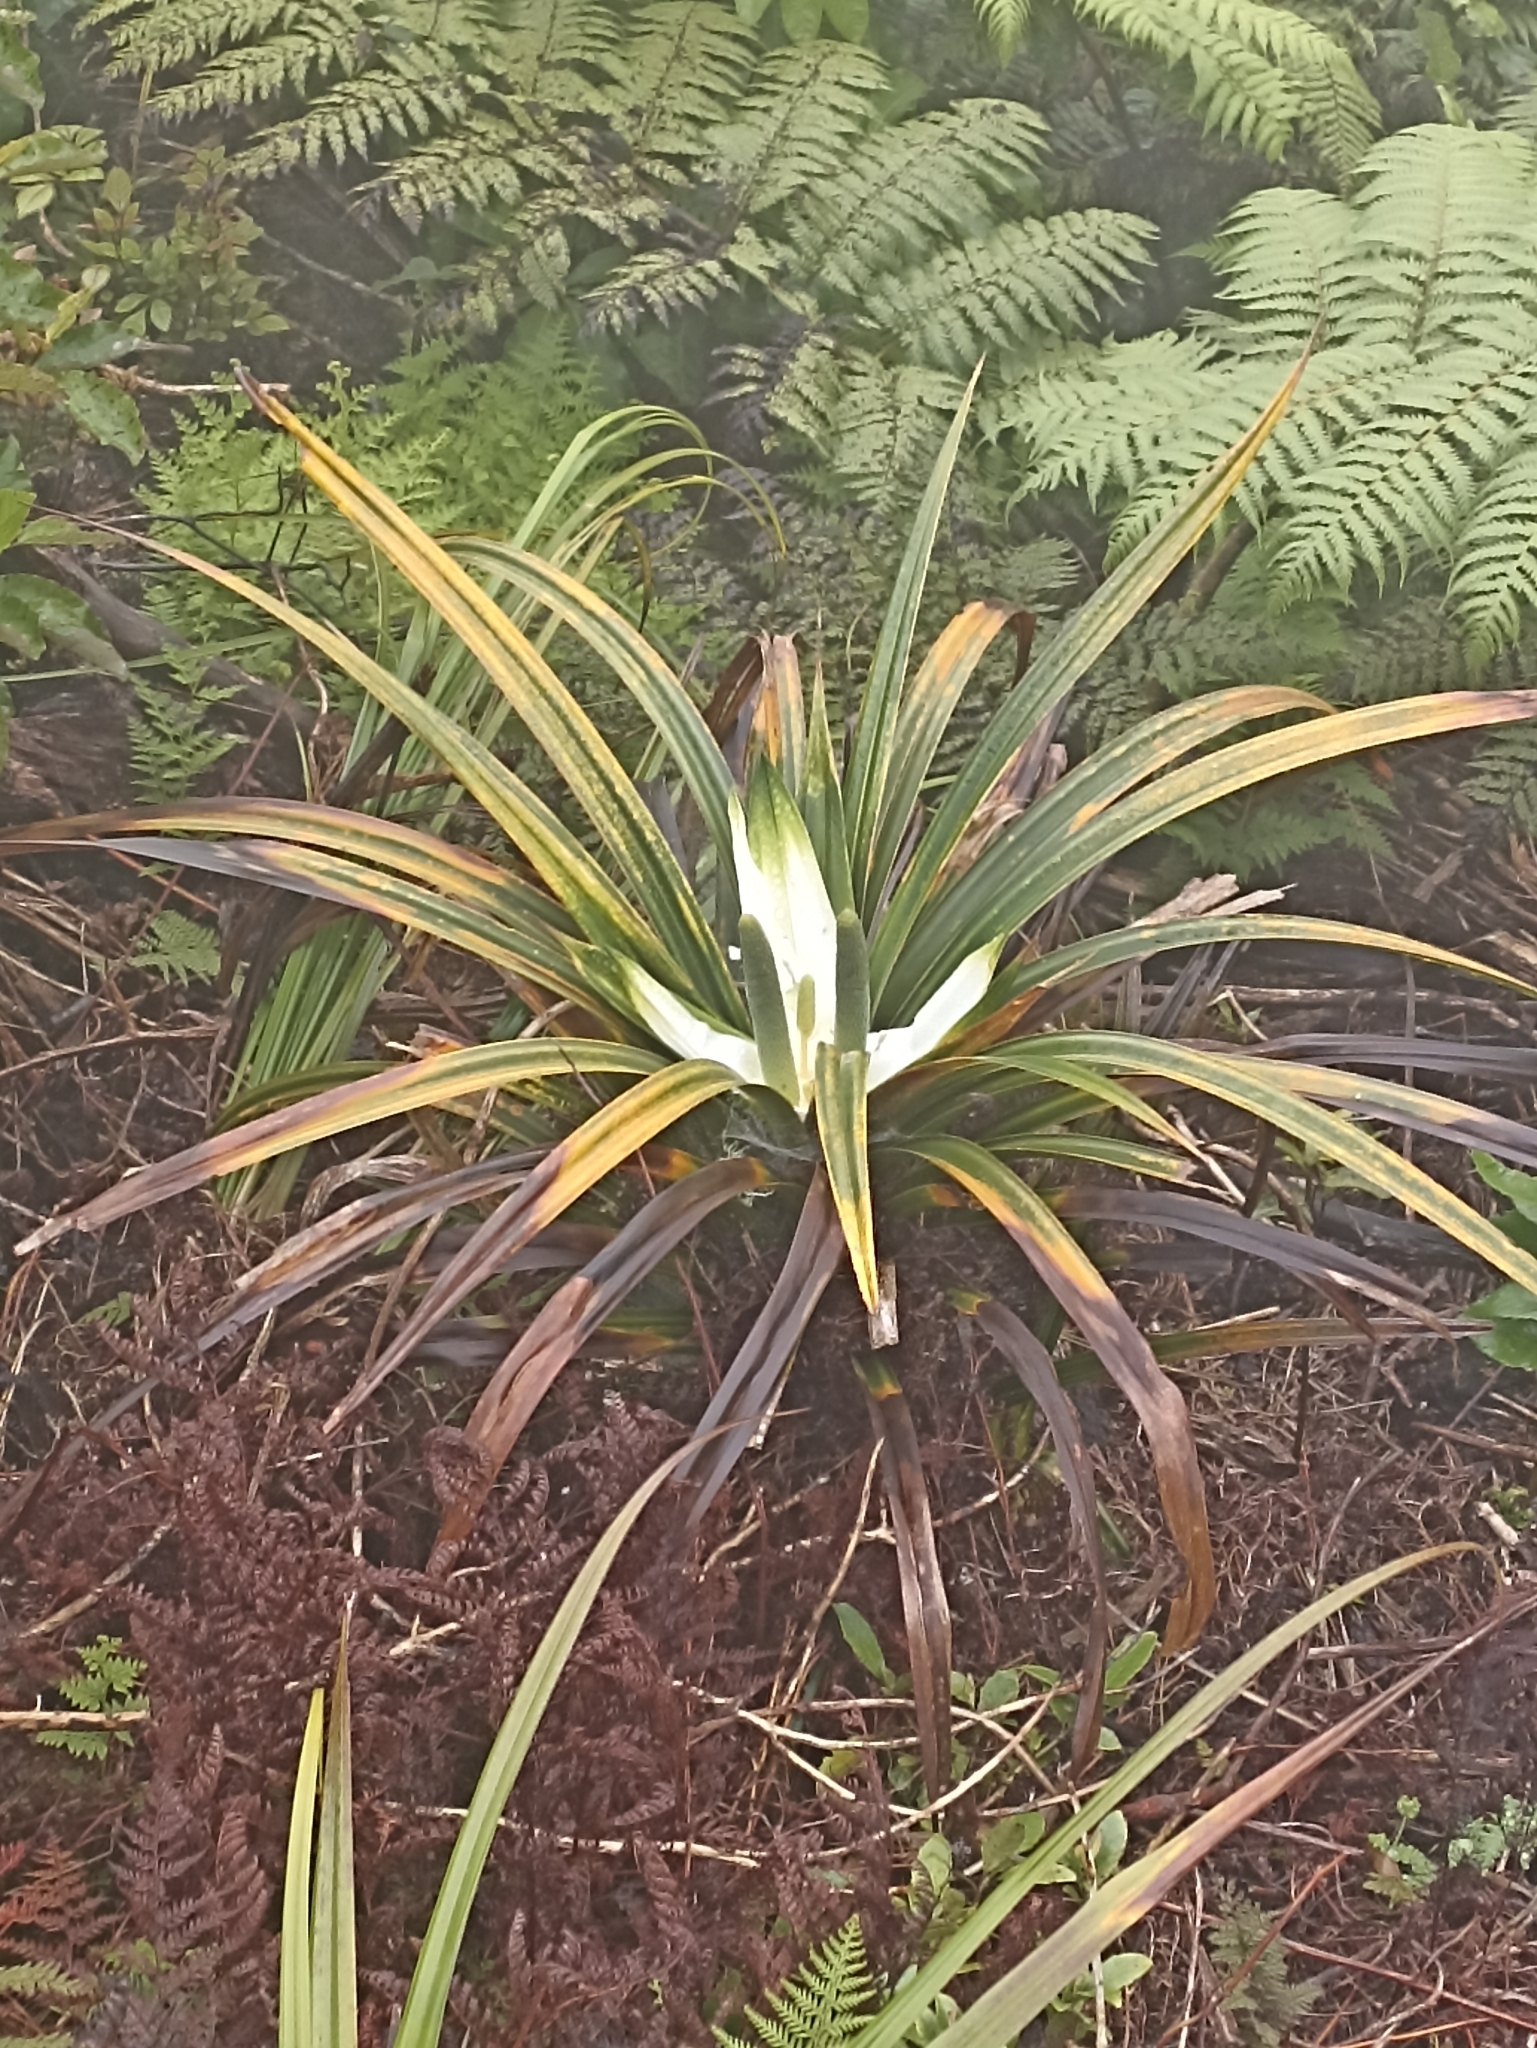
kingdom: Plantae
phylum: Tracheophyta
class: Liliopsida
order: Pandanales
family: Pandanaceae
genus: Freycinetia
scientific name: Freycinetia banksii
